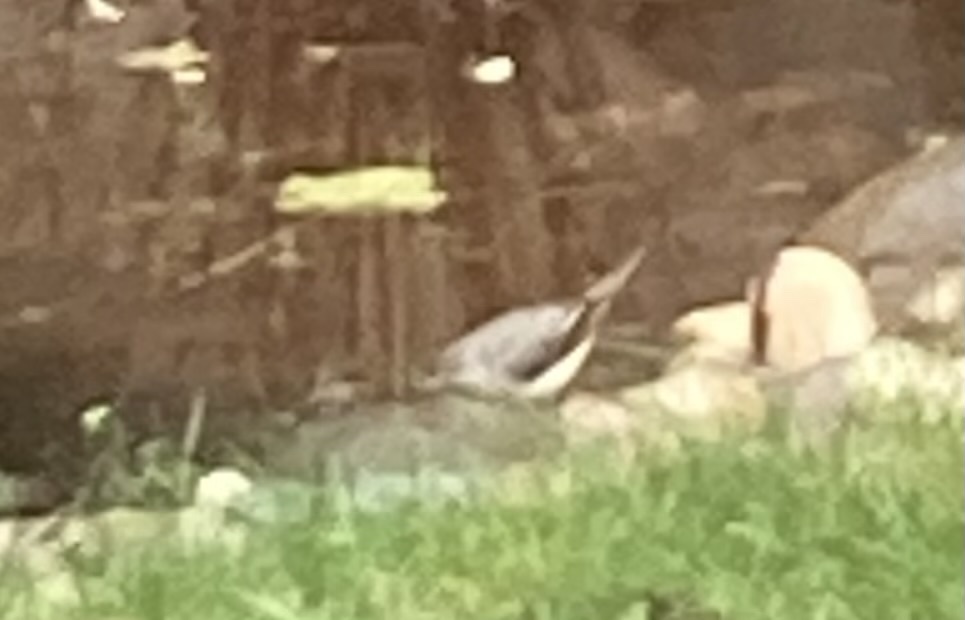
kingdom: Animalia
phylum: Chordata
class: Aves
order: Passeriformes
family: Motacillidae
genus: Motacilla
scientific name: Motacilla cinerea
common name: Grey wagtail
